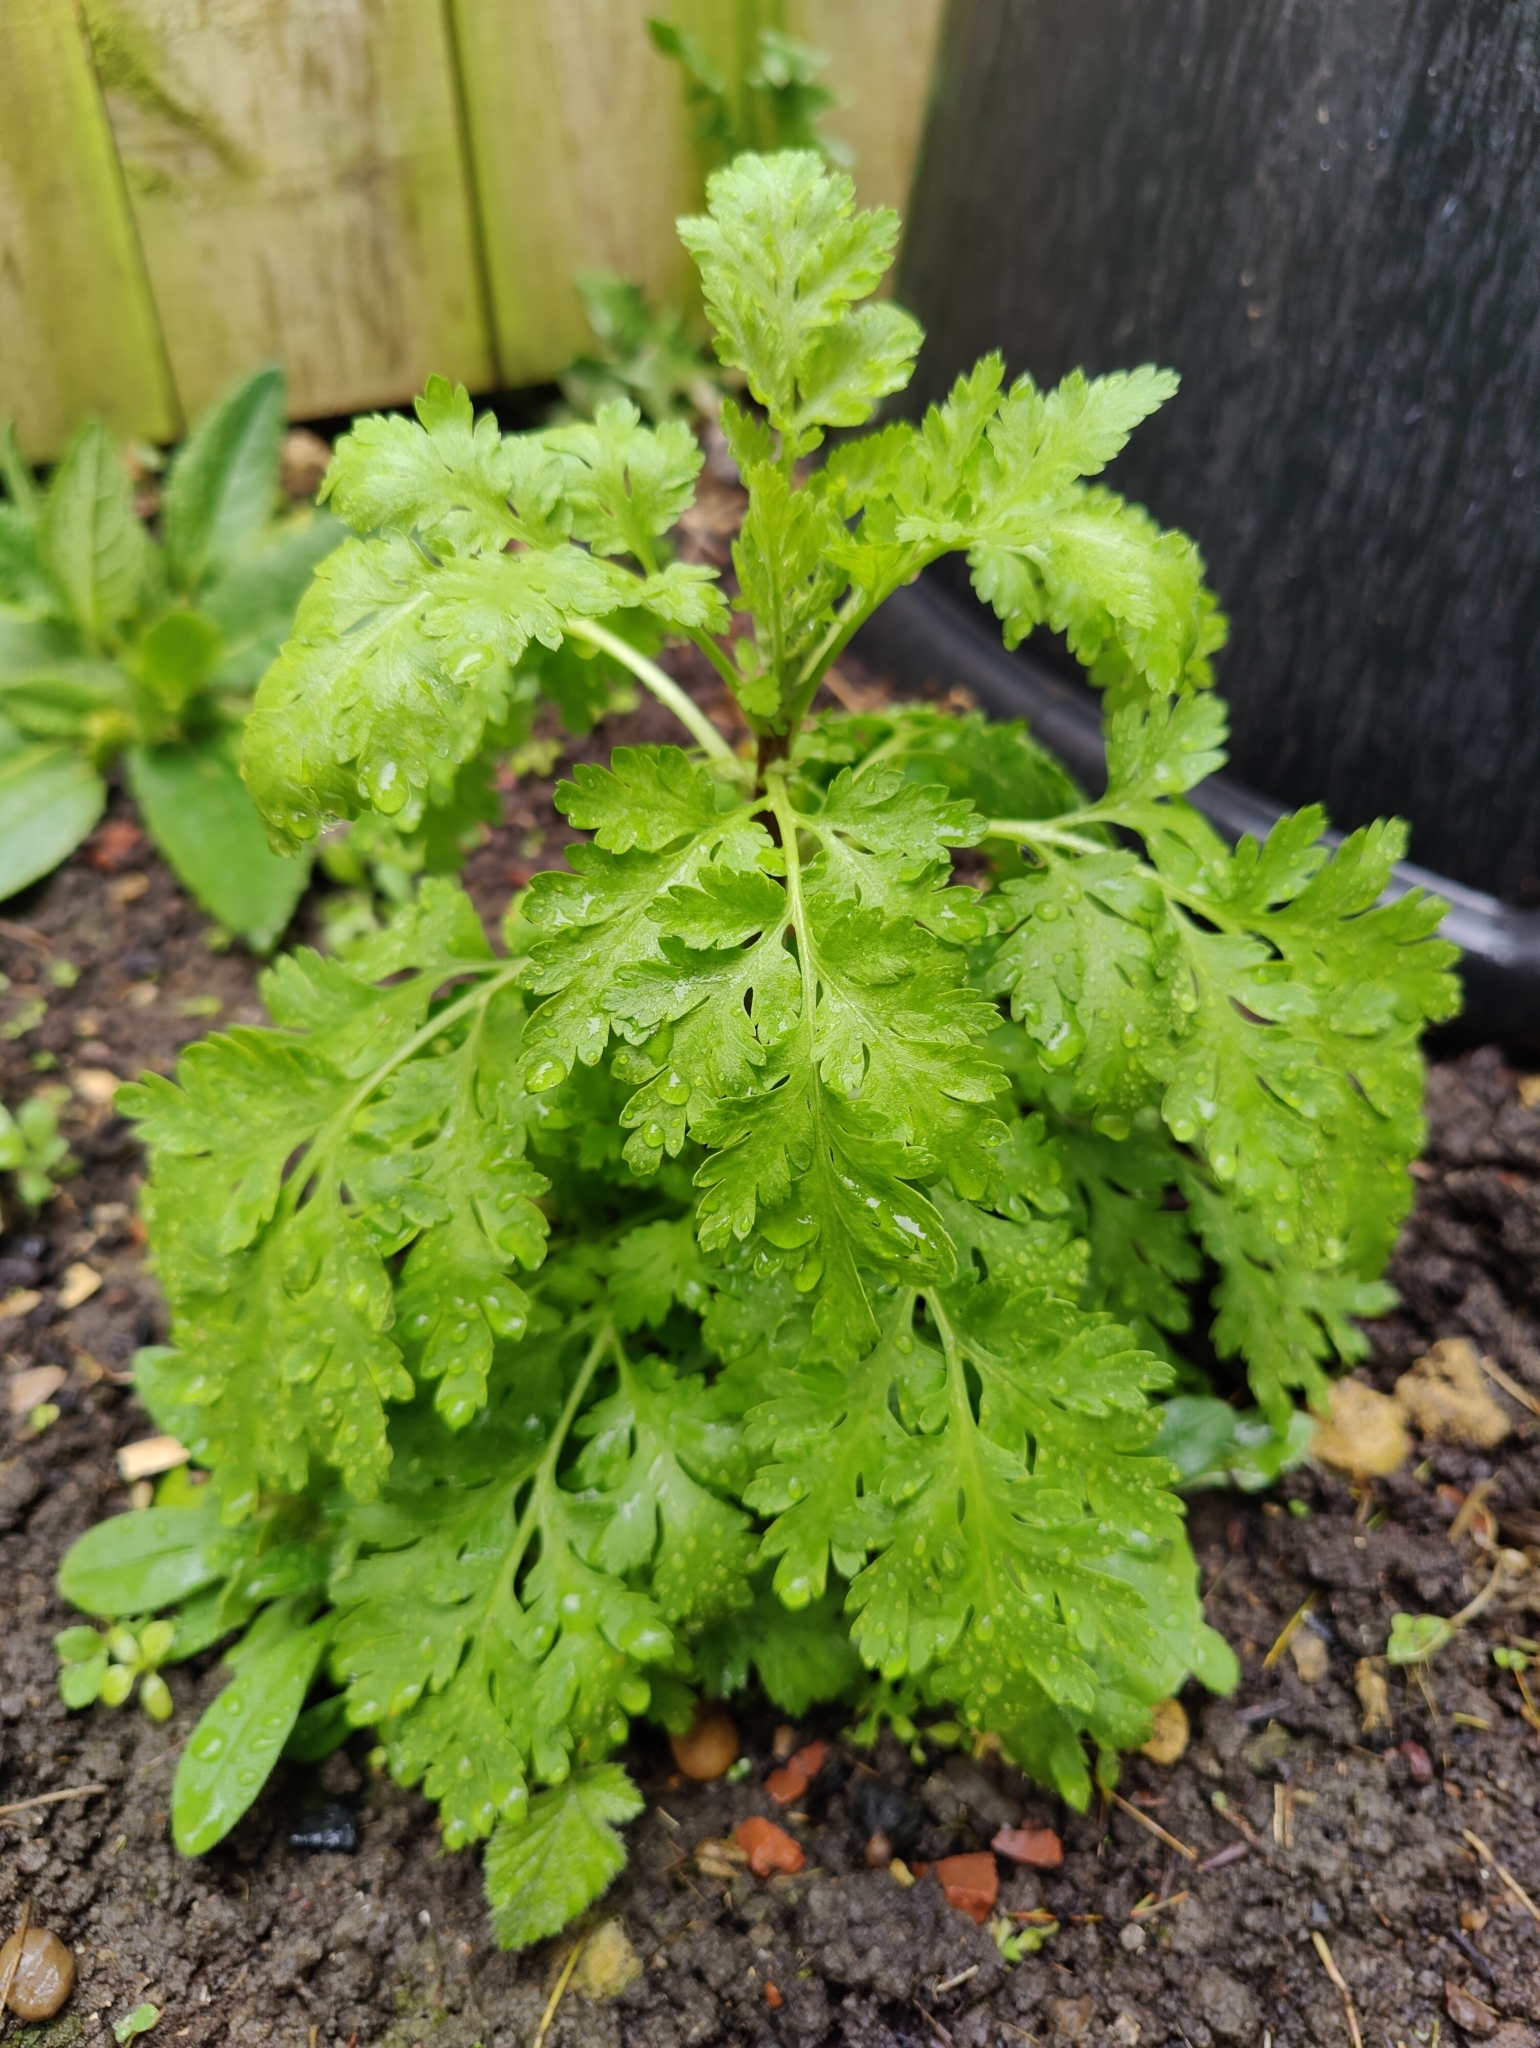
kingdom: Plantae
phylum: Tracheophyta
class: Magnoliopsida
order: Asterales
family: Asteraceae
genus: Tanacetum
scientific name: Tanacetum parthenium
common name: Feverfew
